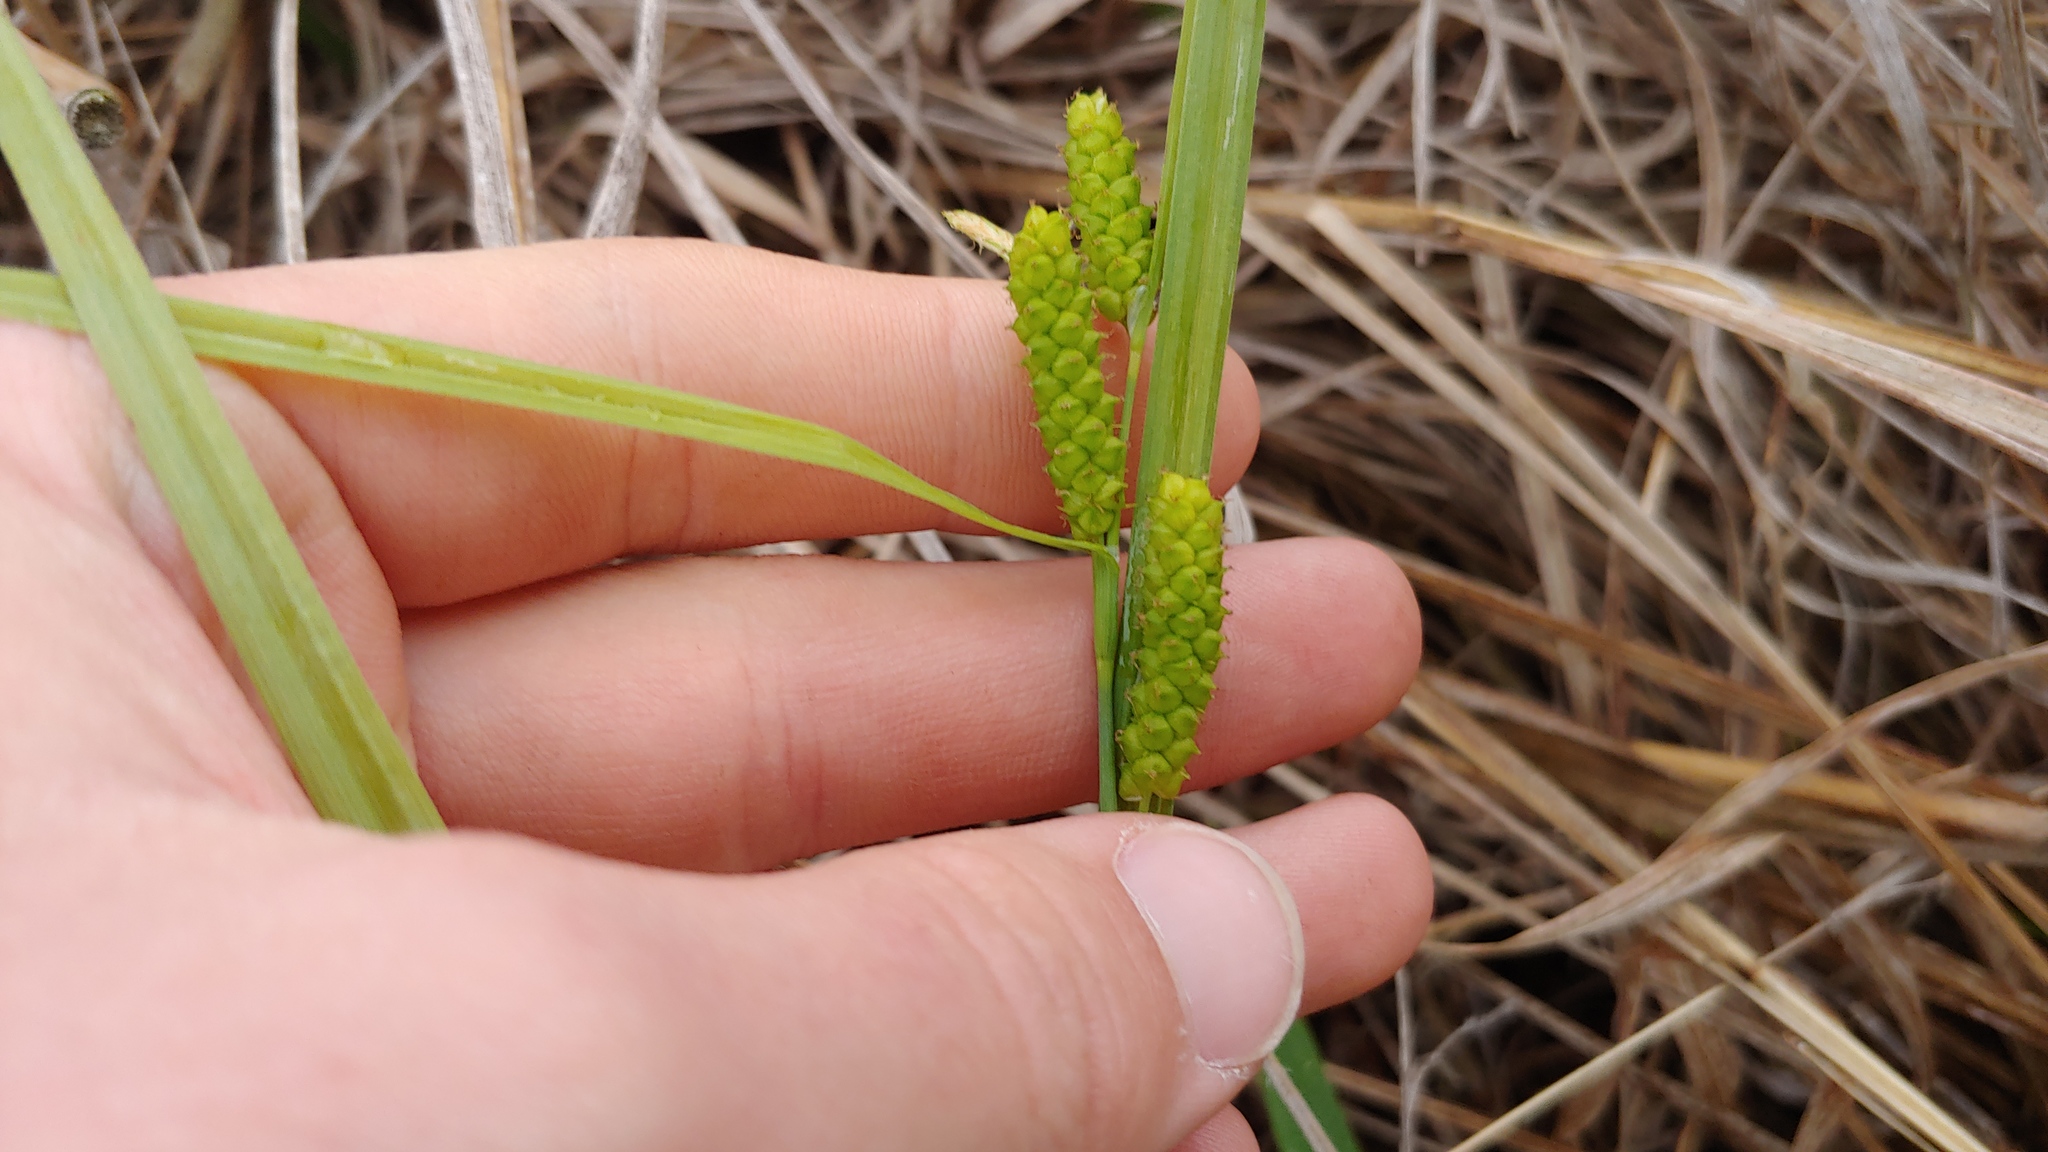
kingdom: Plantae
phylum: Tracheophyta
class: Liliopsida
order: Poales
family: Cyperaceae
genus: Carex
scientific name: Carex granularis
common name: Granular sedge
